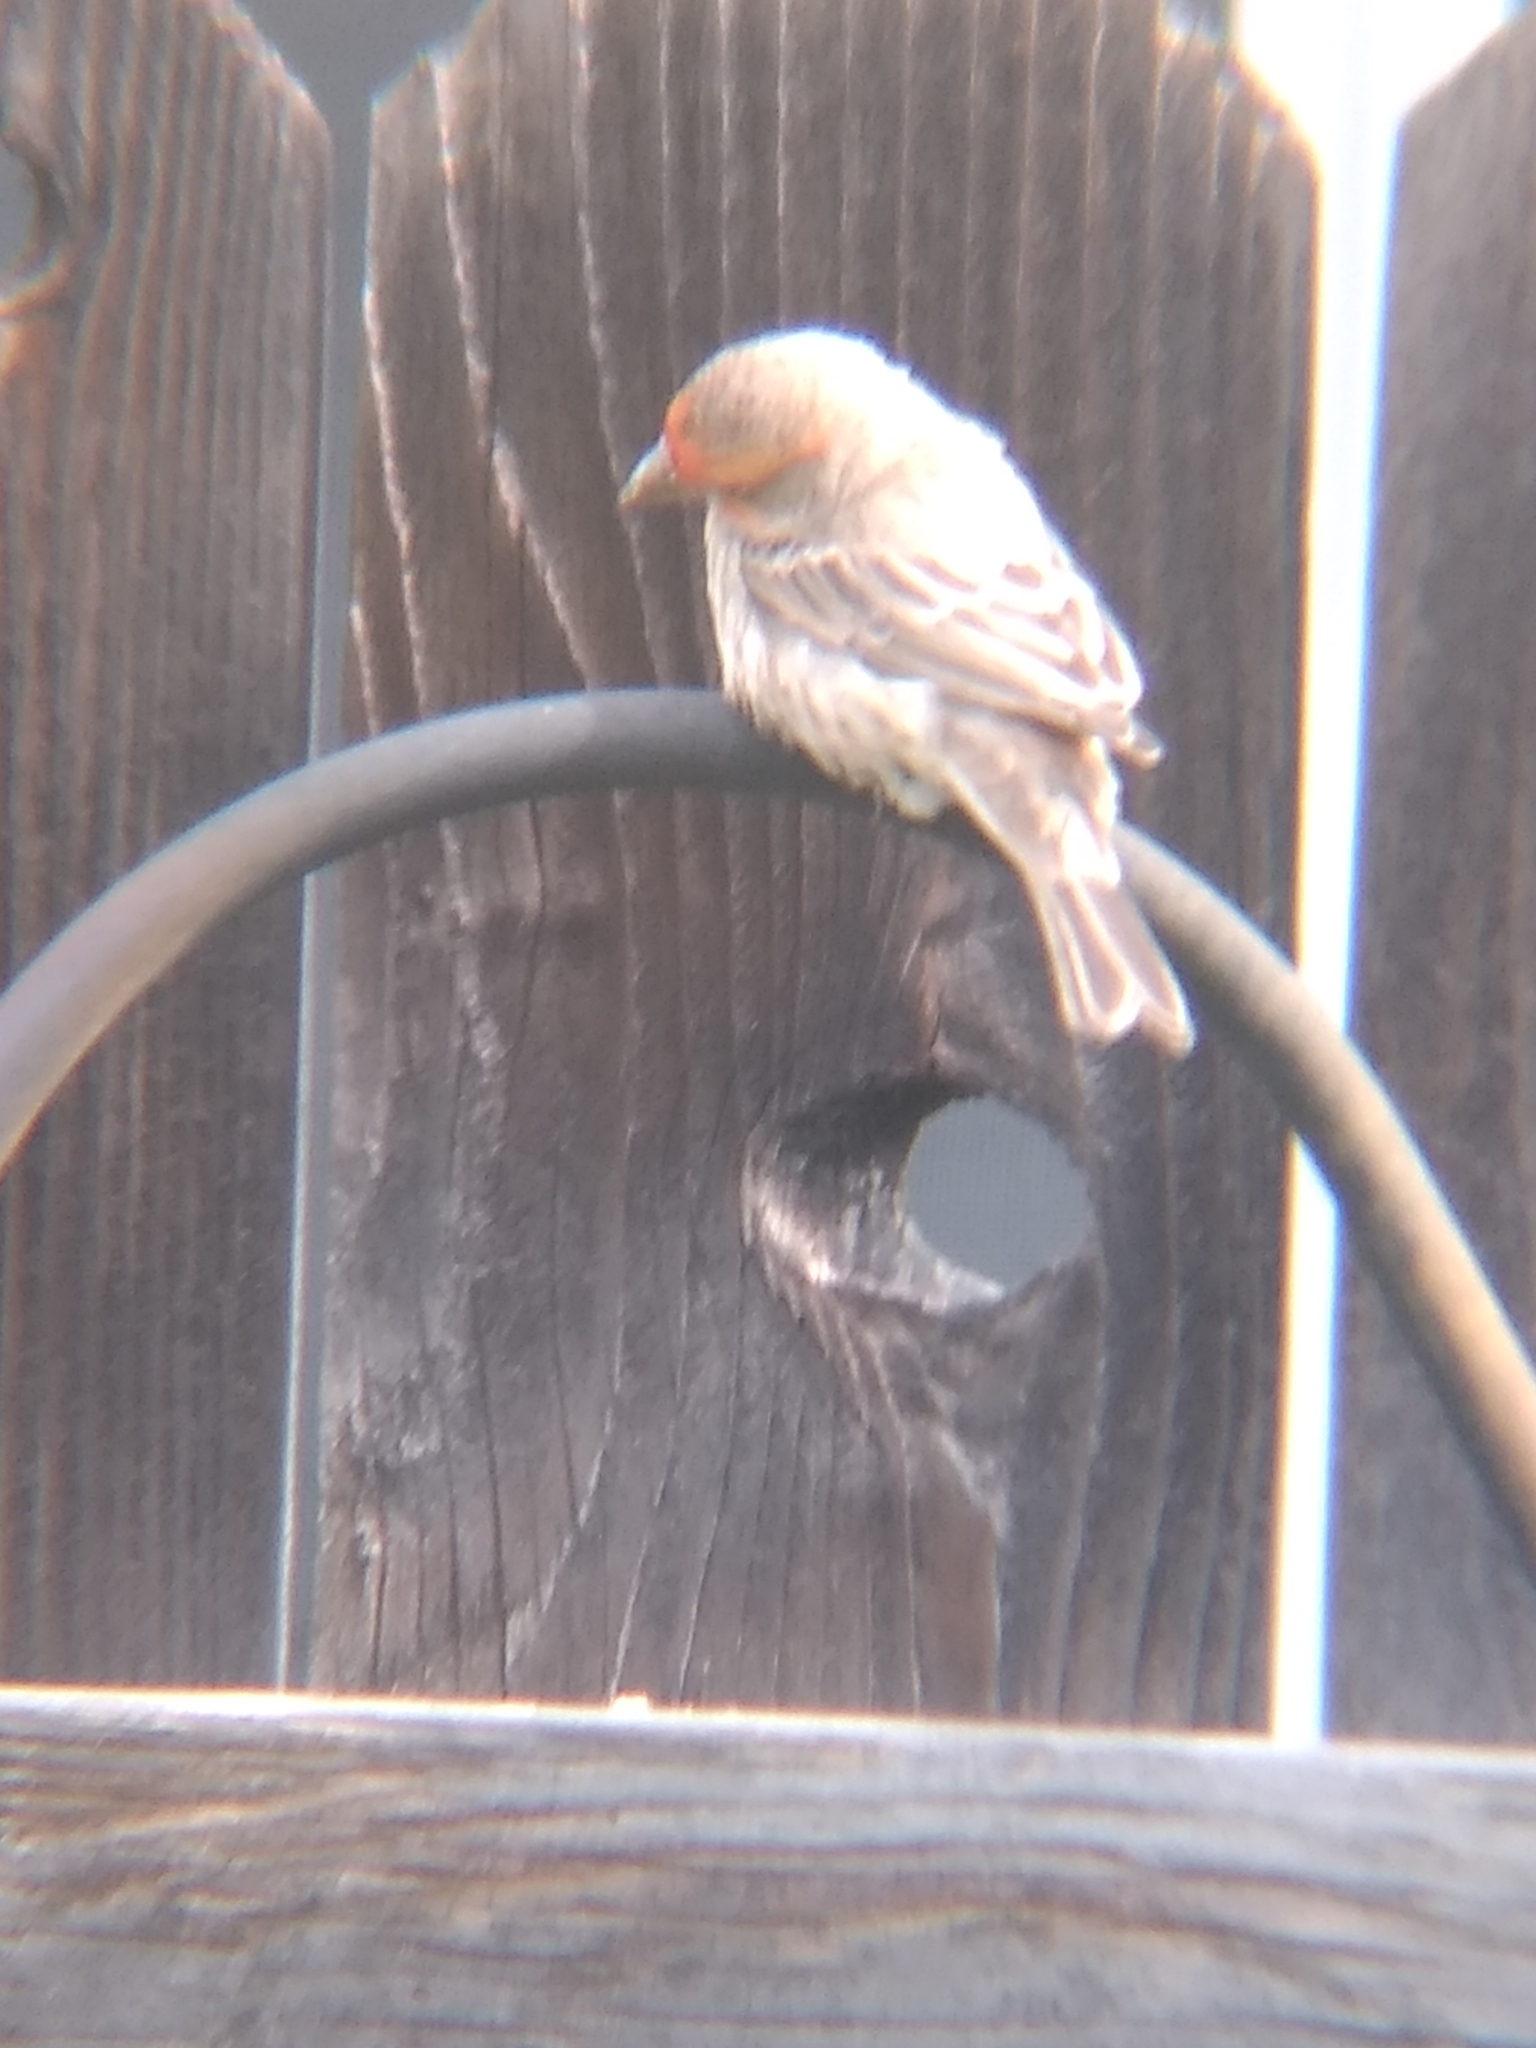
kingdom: Animalia
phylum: Chordata
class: Aves
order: Passeriformes
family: Fringillidae
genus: Haemorhous
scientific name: Haemorhous mexicanus
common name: House finch
